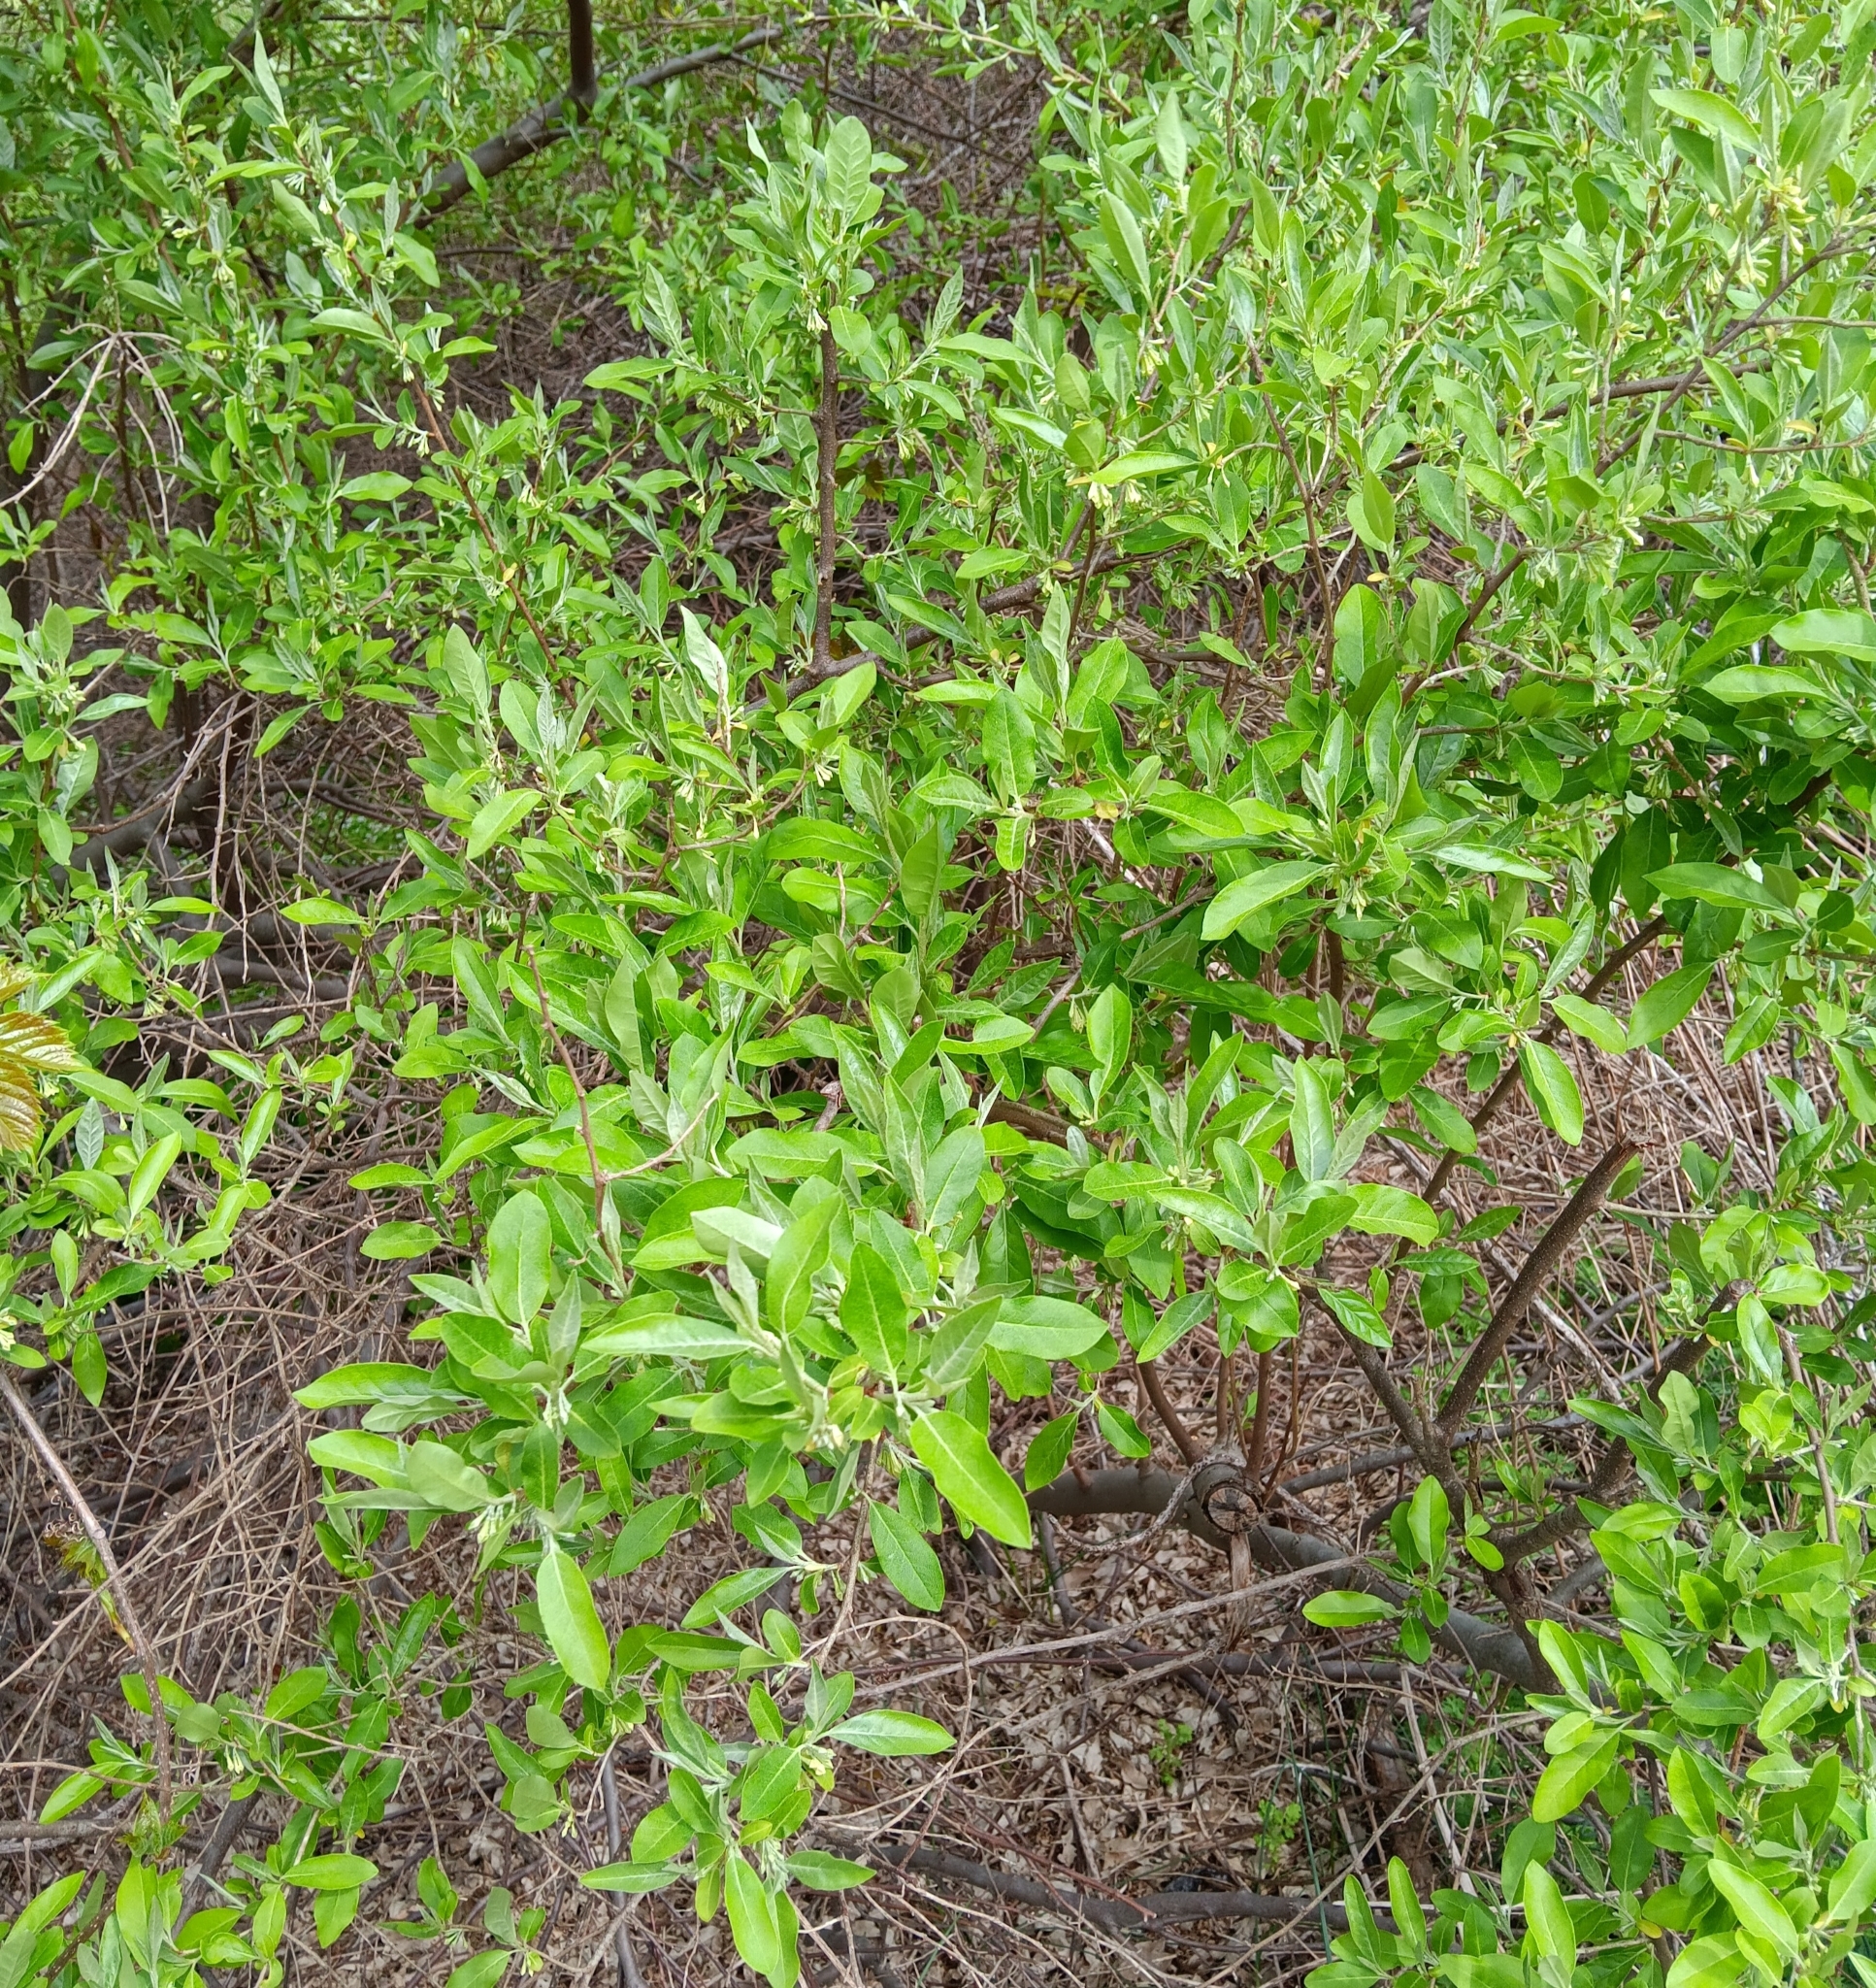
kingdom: Plantae
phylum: Tracheophyta
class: Magnoliopsida
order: Rosales
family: Elaeagnaceae
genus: Elaeagnus
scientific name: Elaeagnus umbellata
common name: Autumn olive
